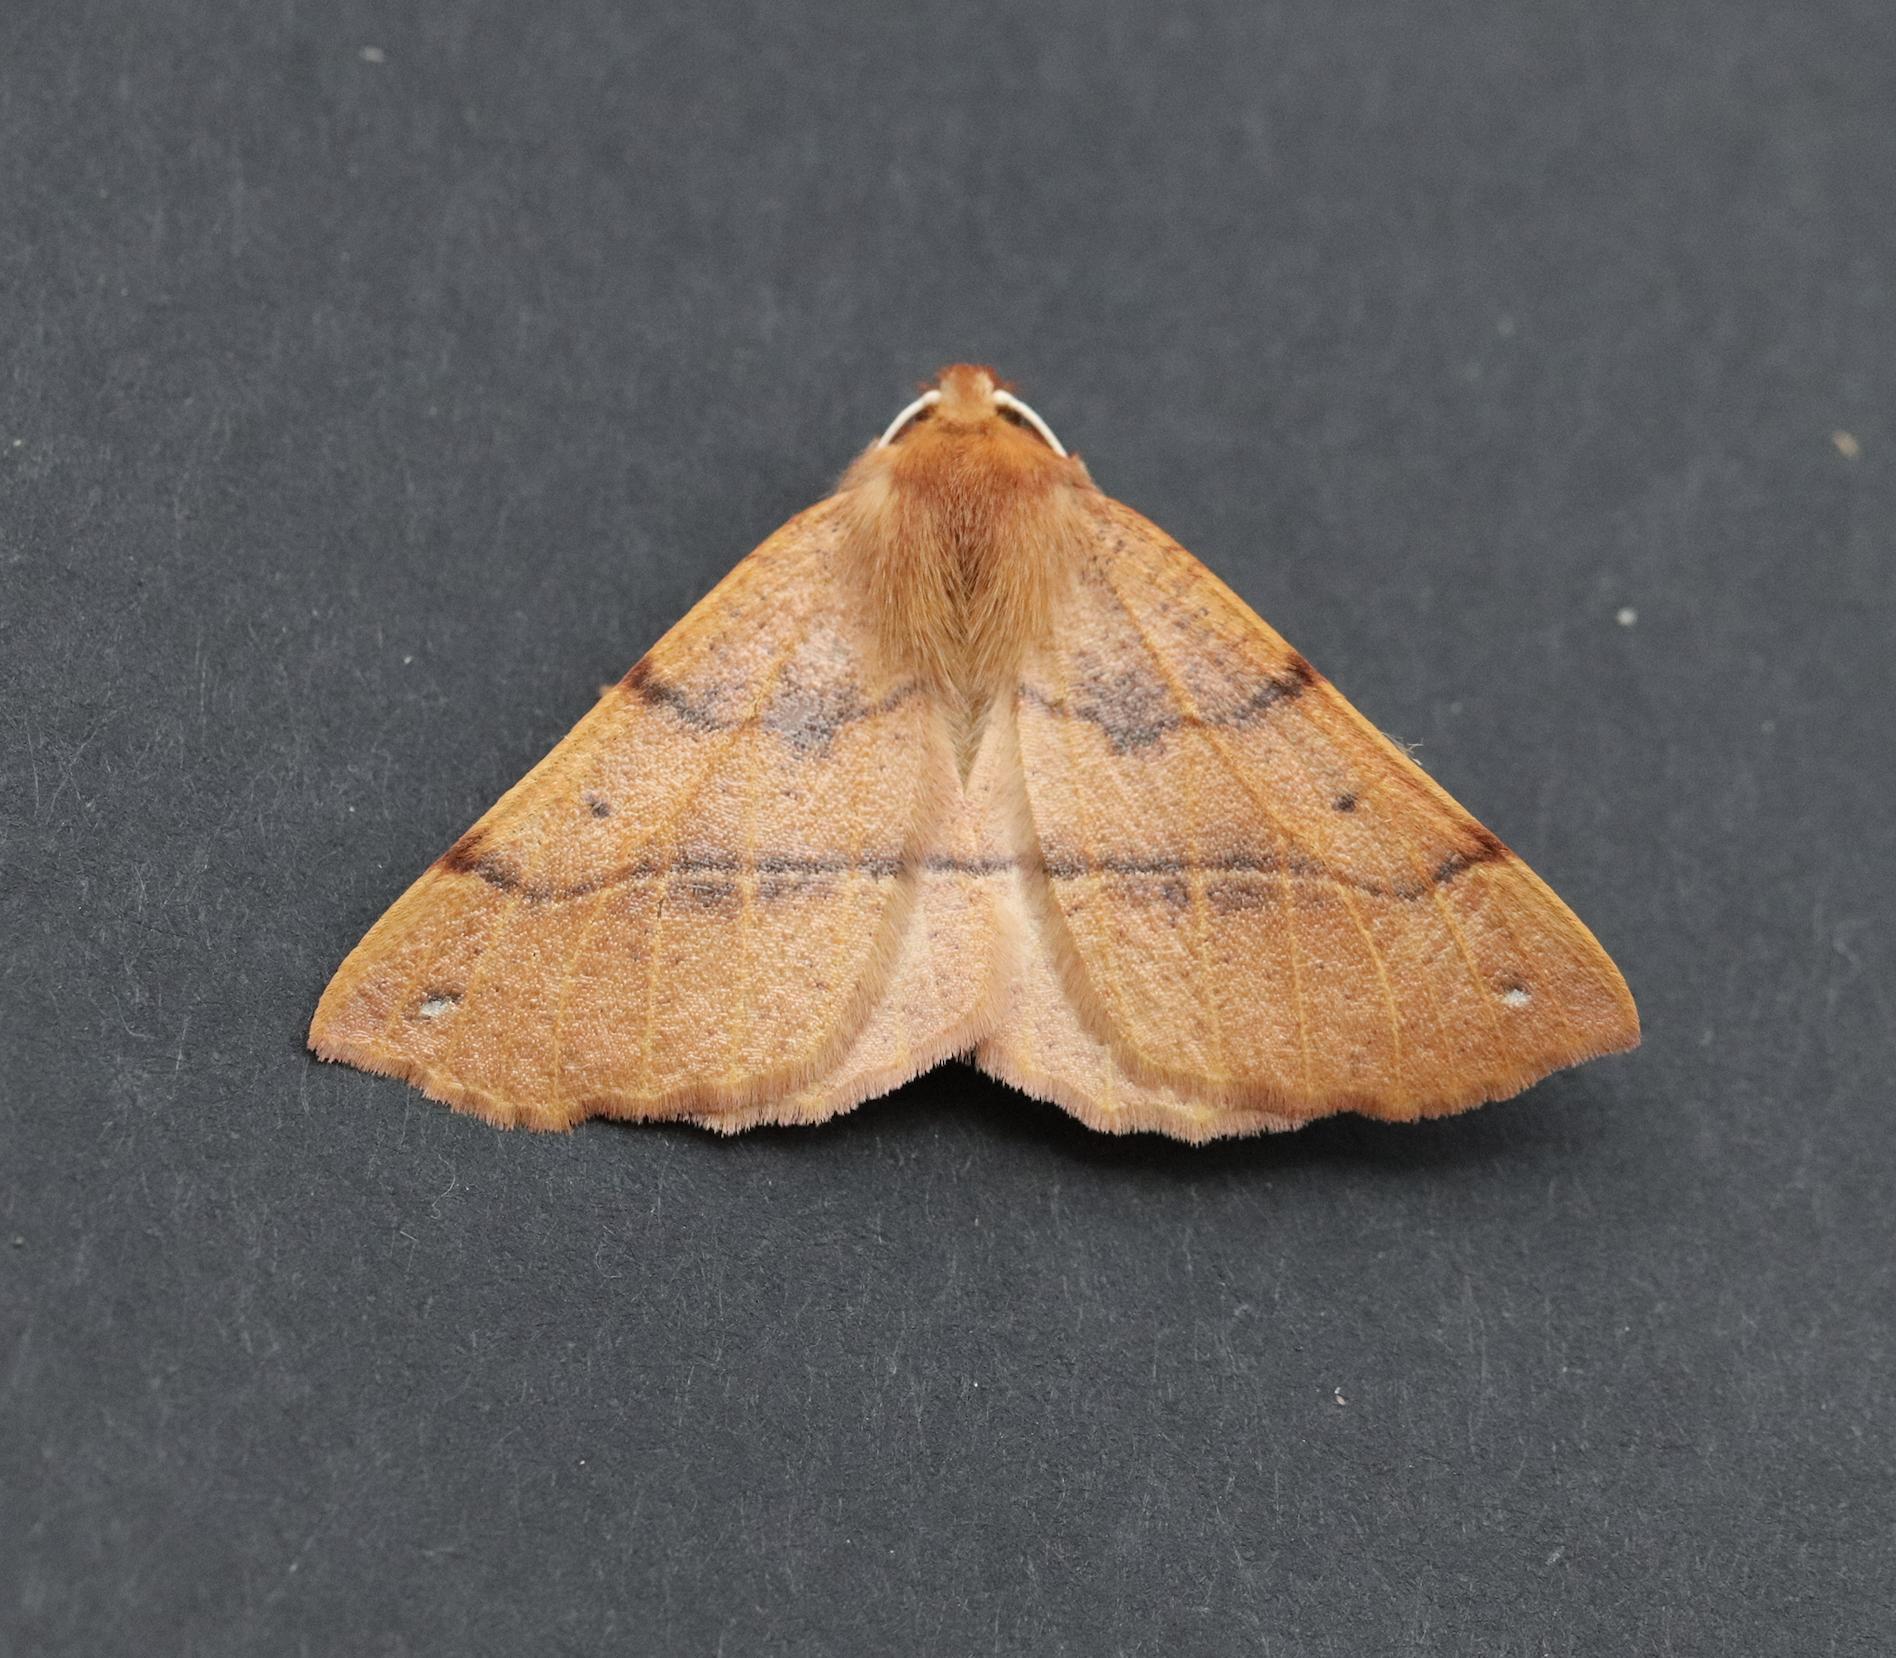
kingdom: Animalia
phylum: Arthropoda
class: Insecta
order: Lepidoptera
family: Geometridae
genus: Colotois
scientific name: Colotois pennaria
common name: Feathered thorn
